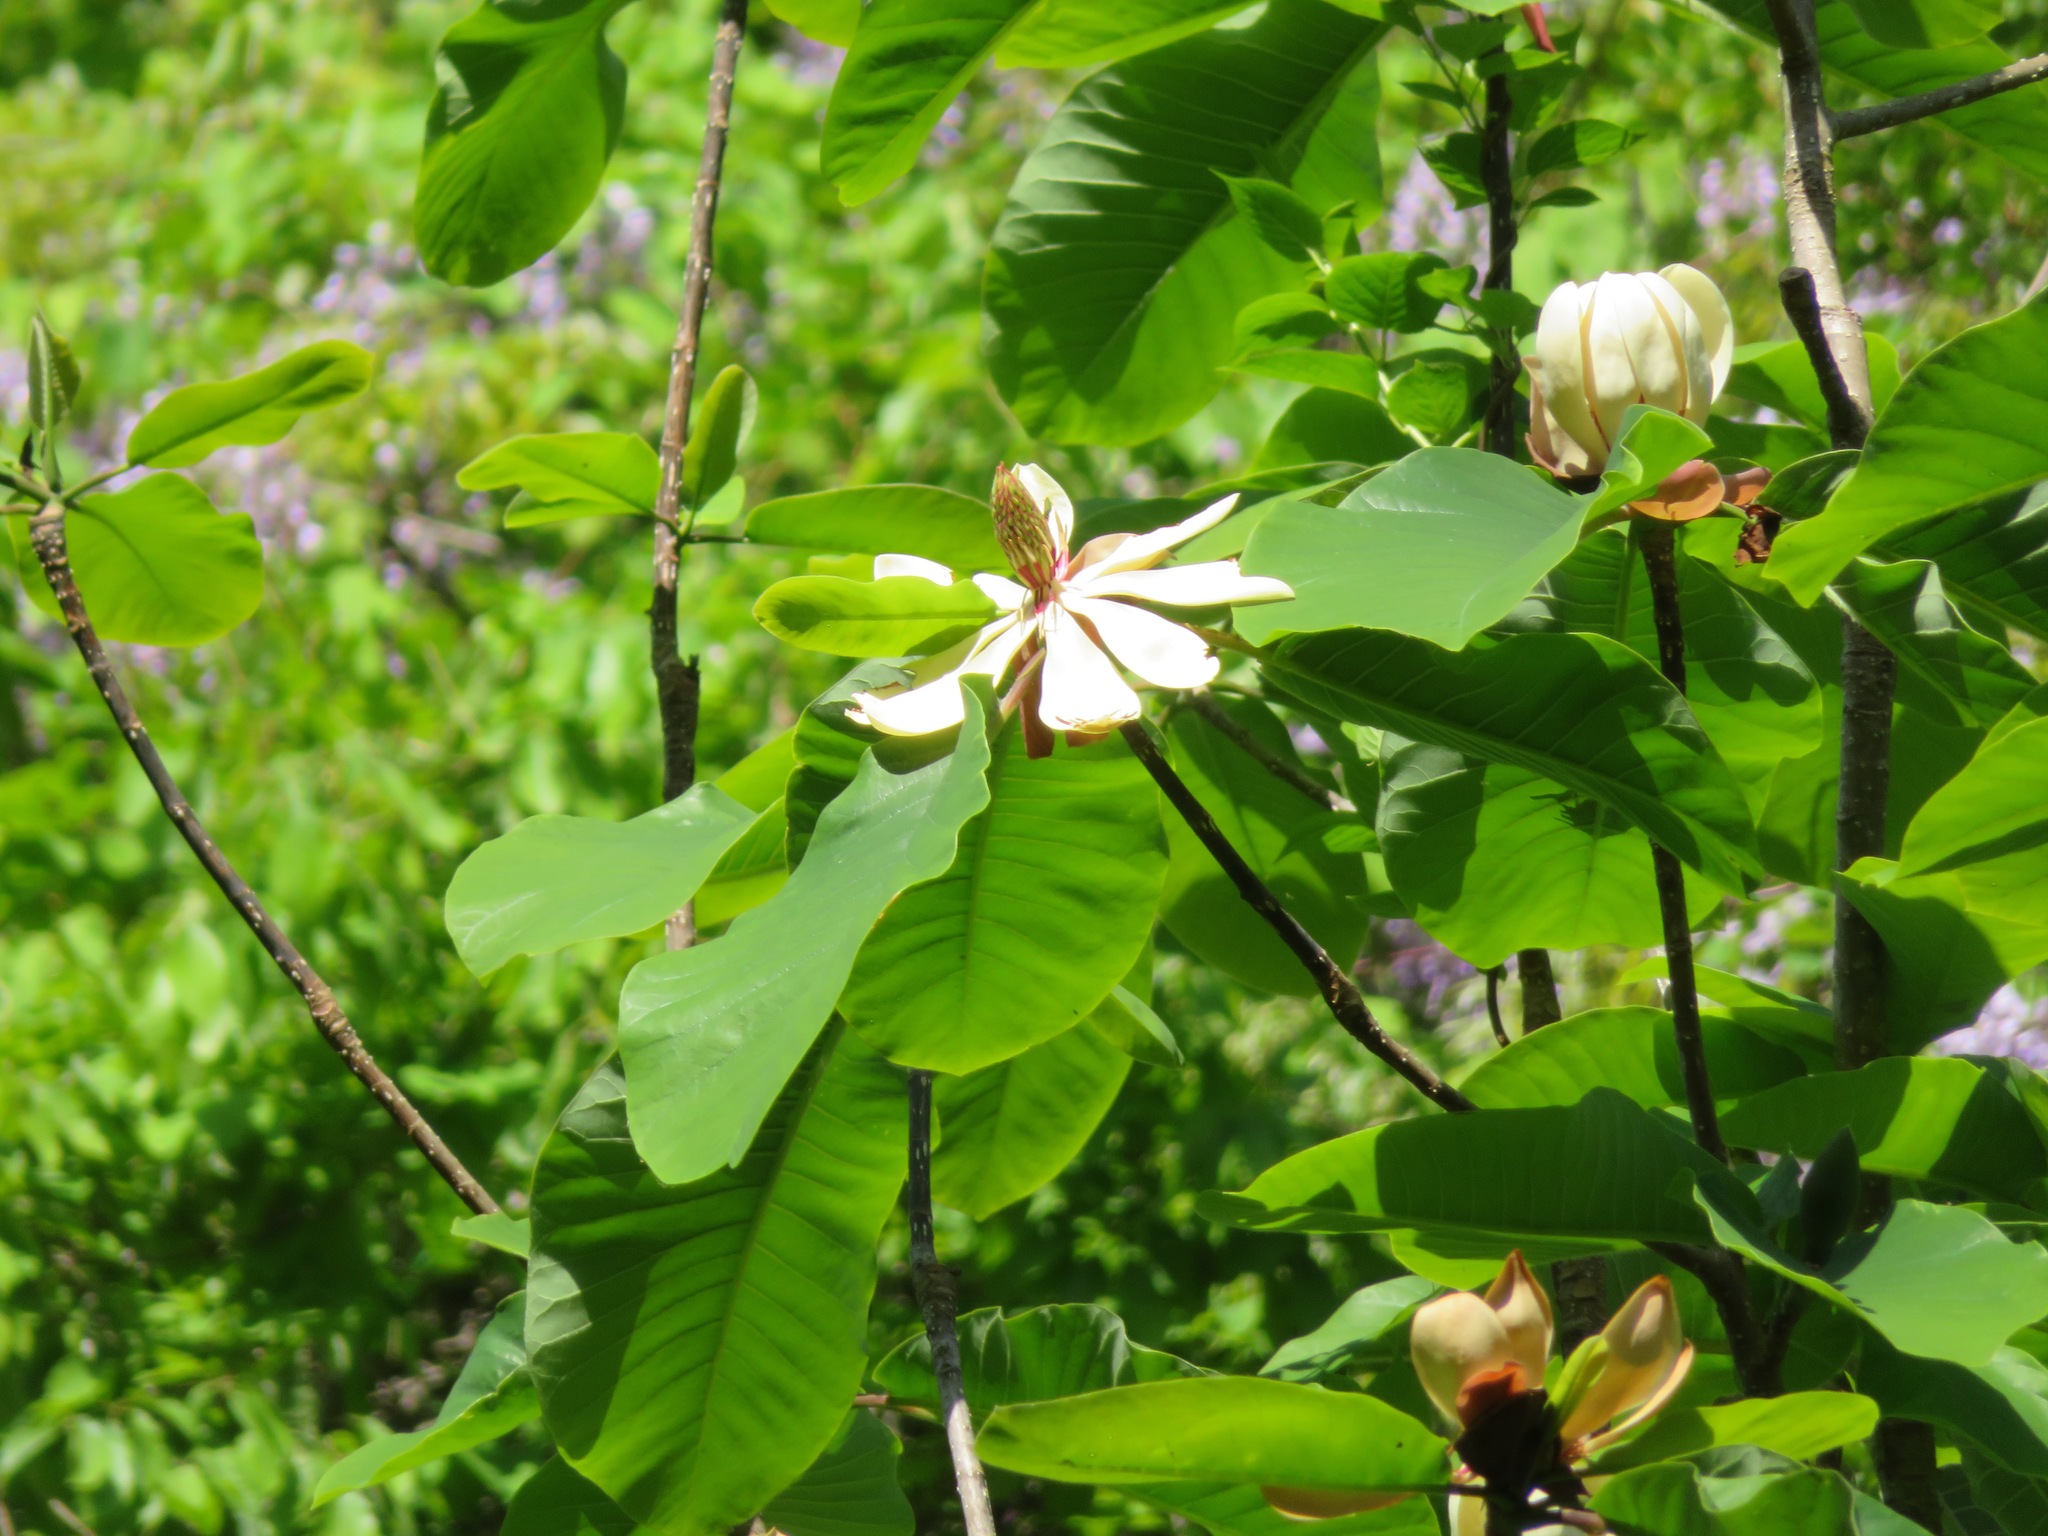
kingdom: Plantae
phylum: Tracheophyta
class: Magnoliopsida
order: Magnoliales
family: Magnoliaceae
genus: Magnolia
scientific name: Magnolia obovata
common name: Japanese whitebark magnolia
